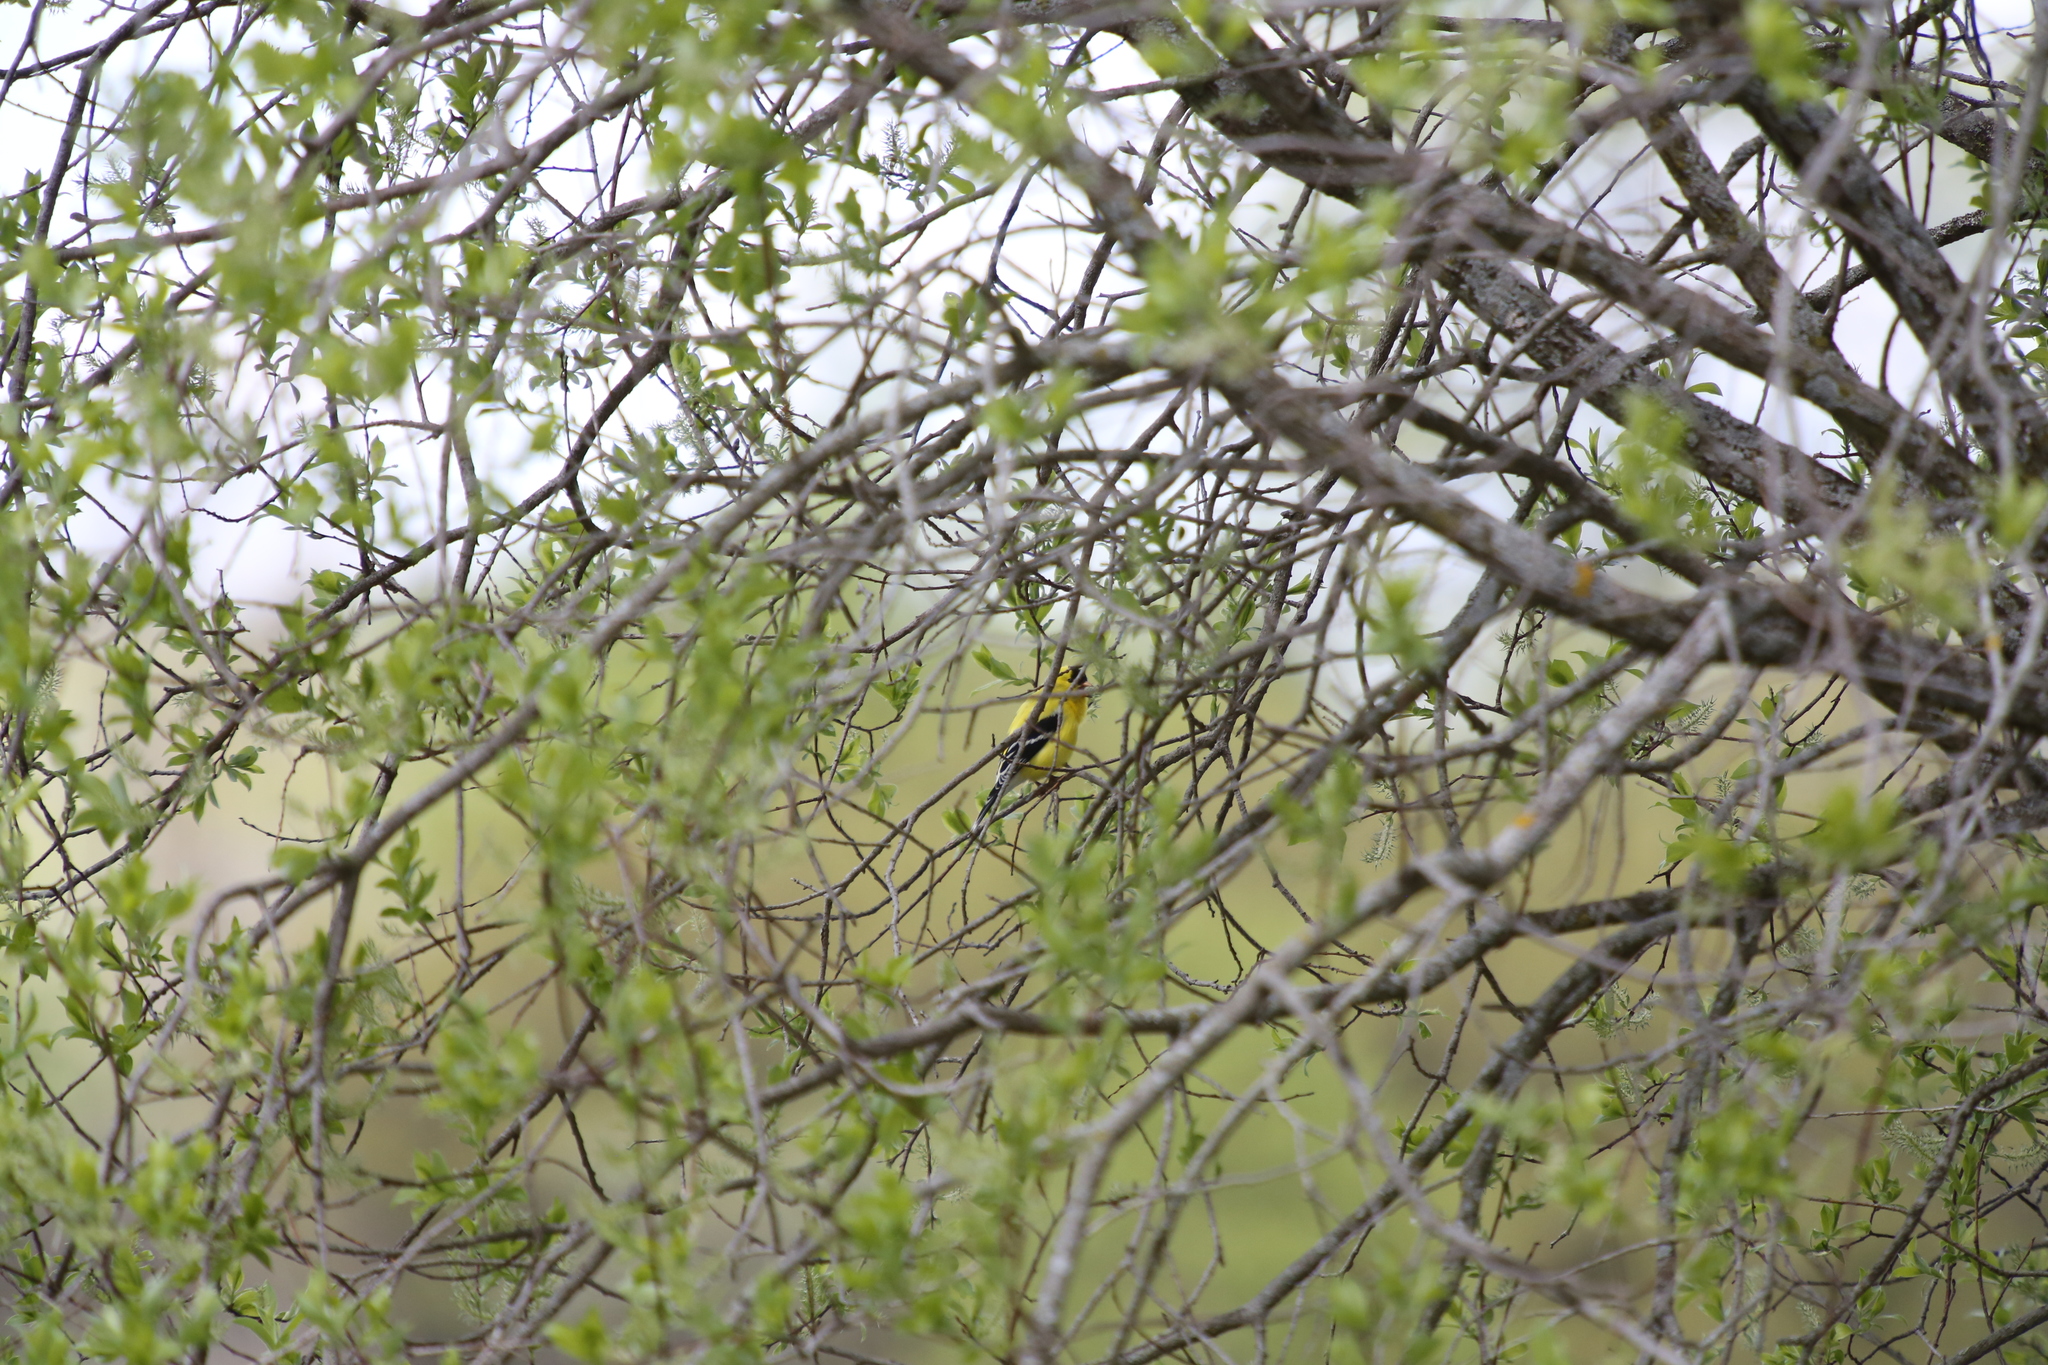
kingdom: Animalia
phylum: Chordata
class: Aves
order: Passeriformes
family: Fringillidae
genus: Spinus
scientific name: Spinus tristis
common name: American goldfinch
